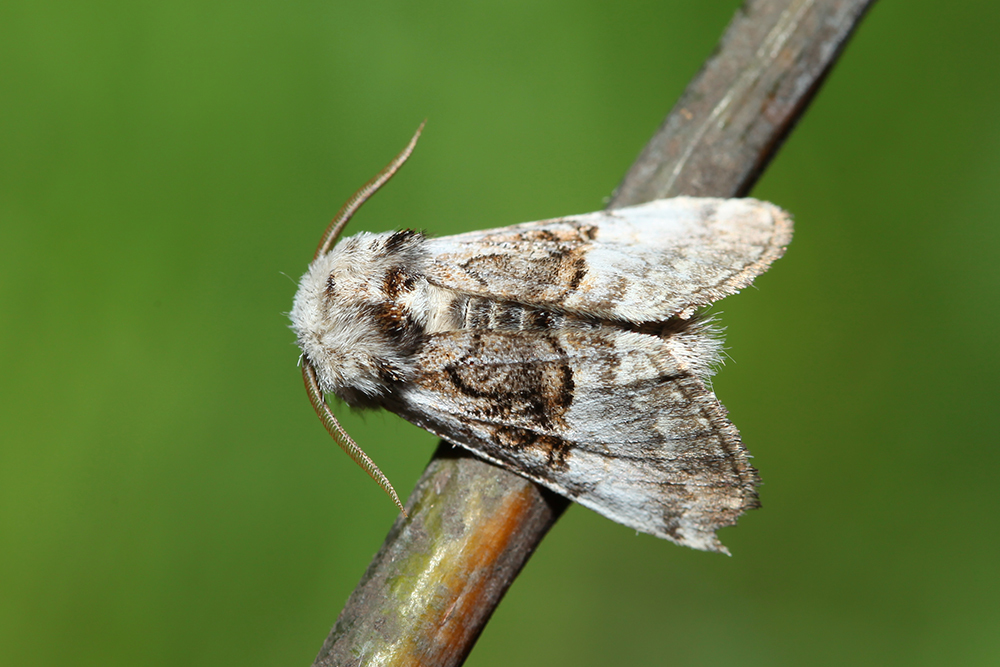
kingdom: Animalia
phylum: Arthropoda
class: Insecta
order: Lepidoptera
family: Noctuidae
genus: Colocasia
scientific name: Colocasia coryli
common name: Nut-tree tussock
